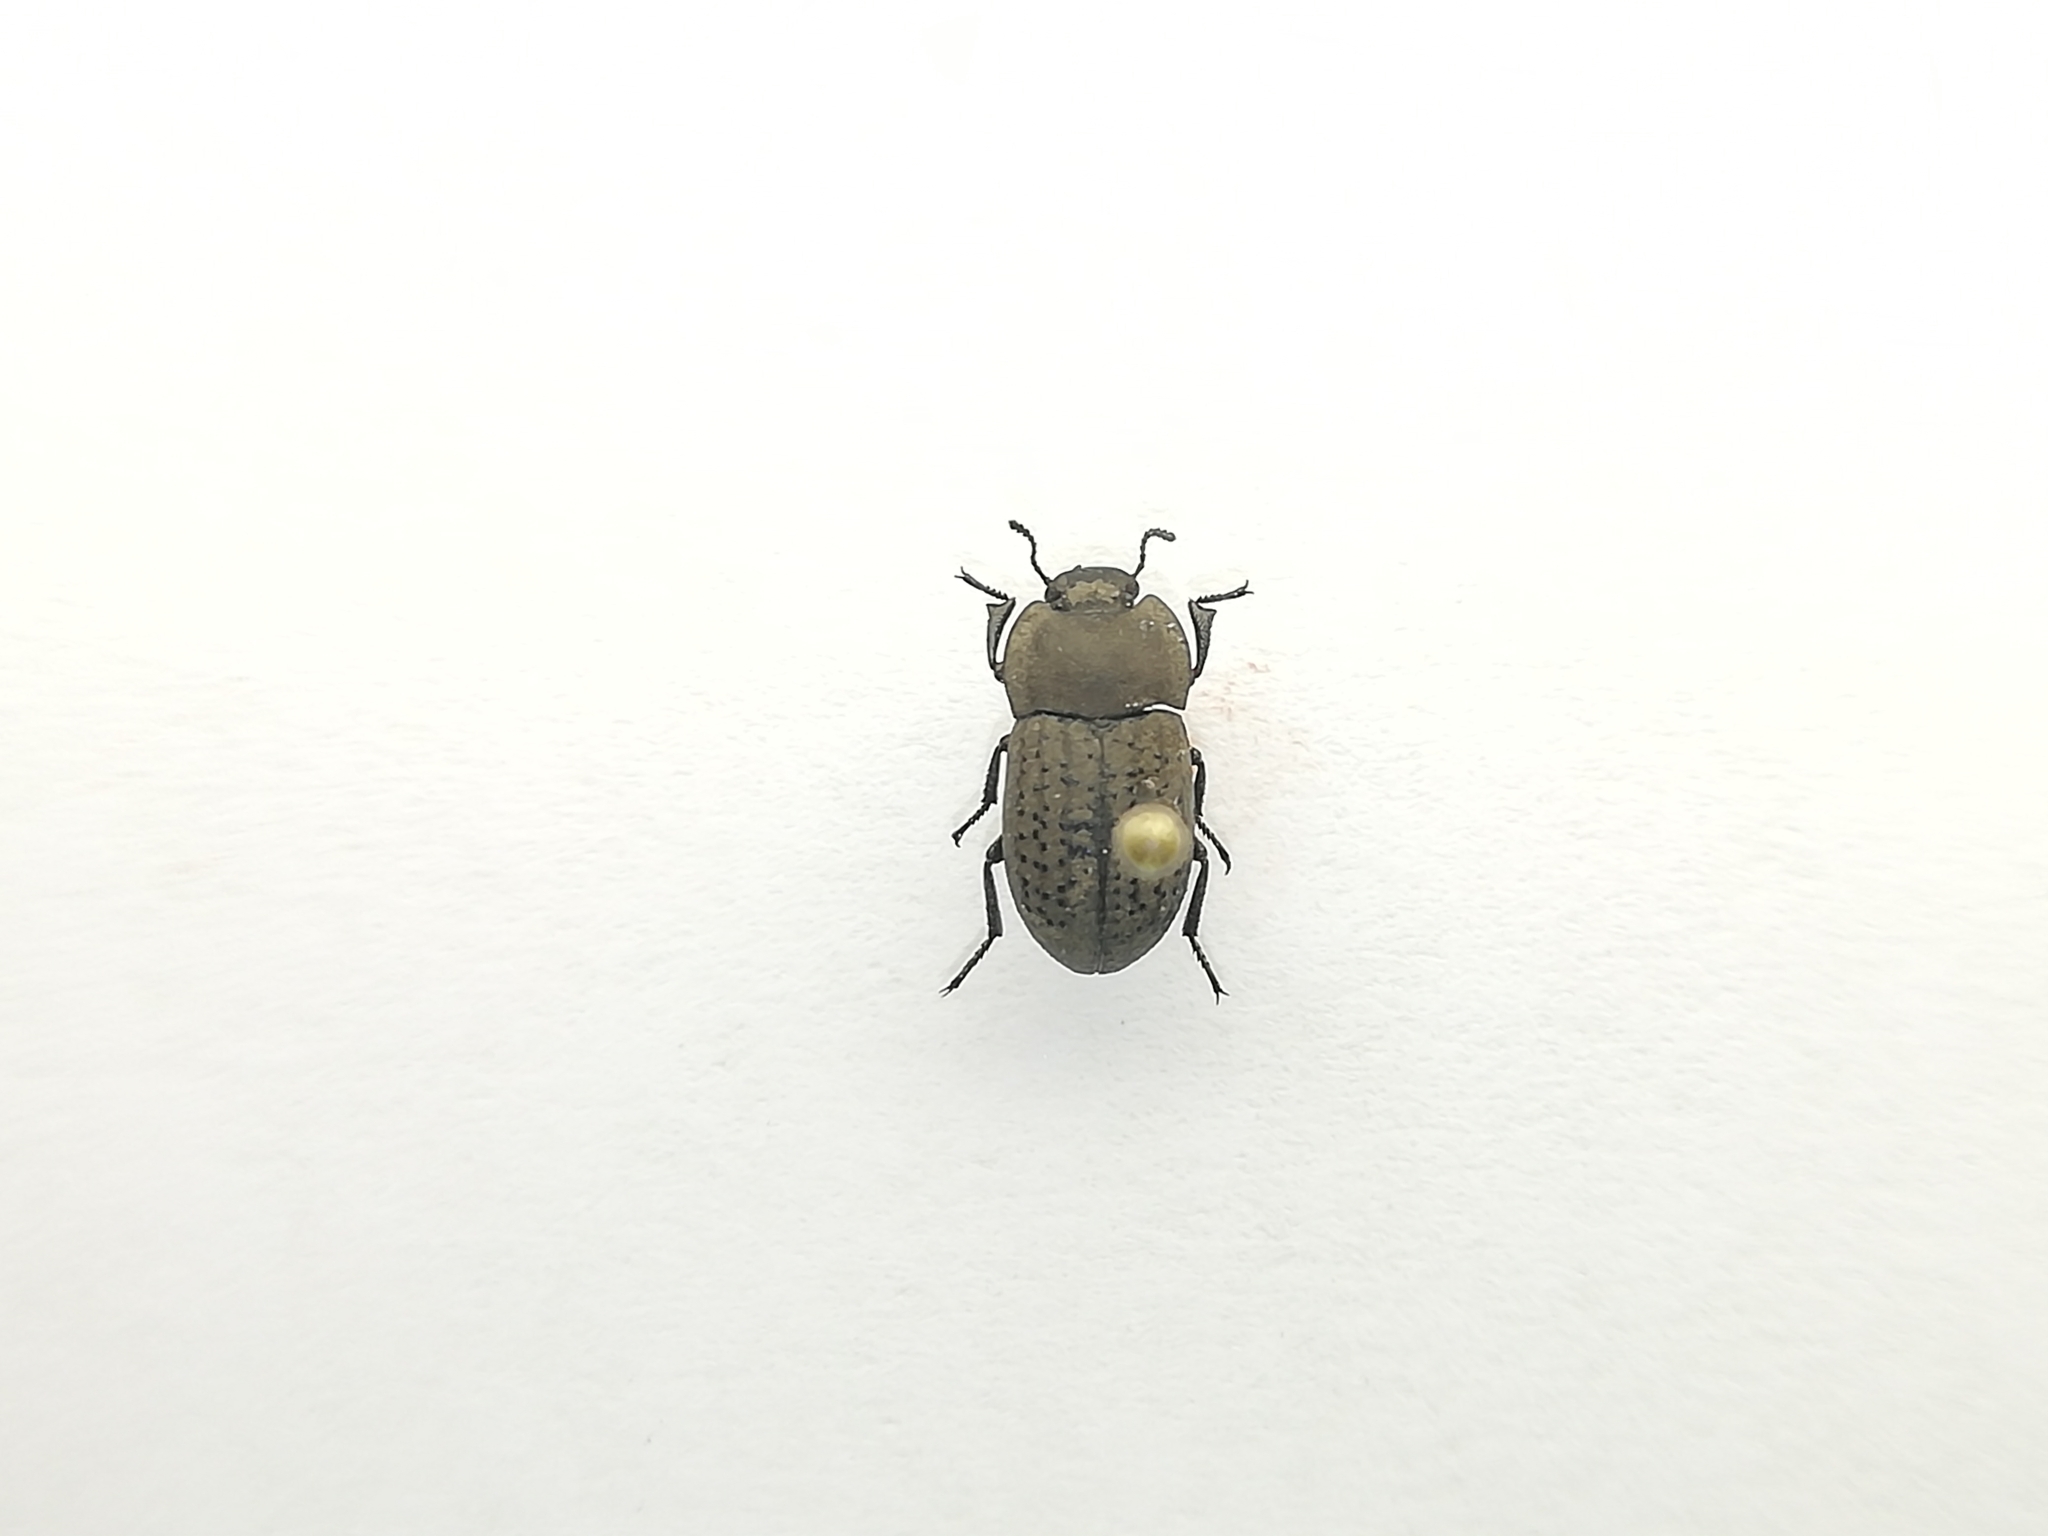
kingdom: Animalia
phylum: Arthropoda
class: Insecta
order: Coleoptera
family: Tenebrionidae
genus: Opatrum
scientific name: Opatrum sabulosum
